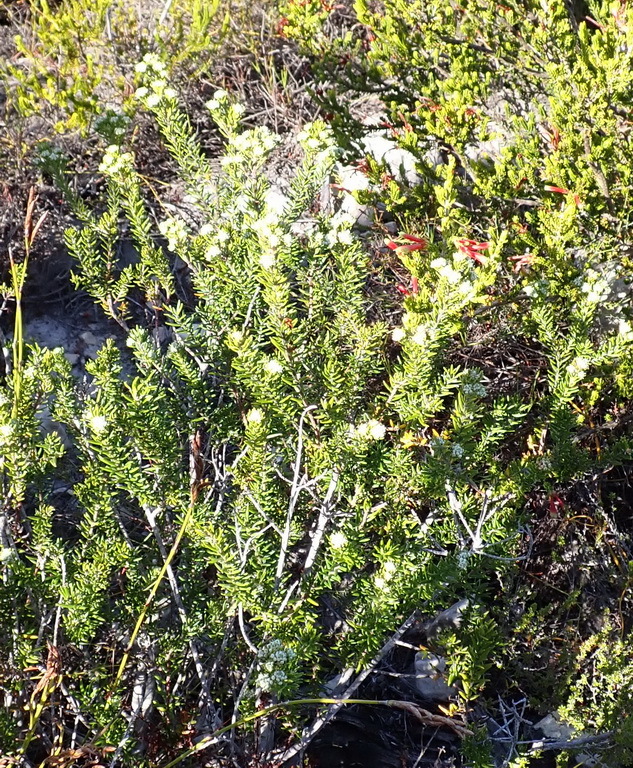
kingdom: Plantae
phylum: Tracheophyta
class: Magnoliopsida
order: Rosales
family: Rhamnaceae
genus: Phylica
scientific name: Phylica axillaris
